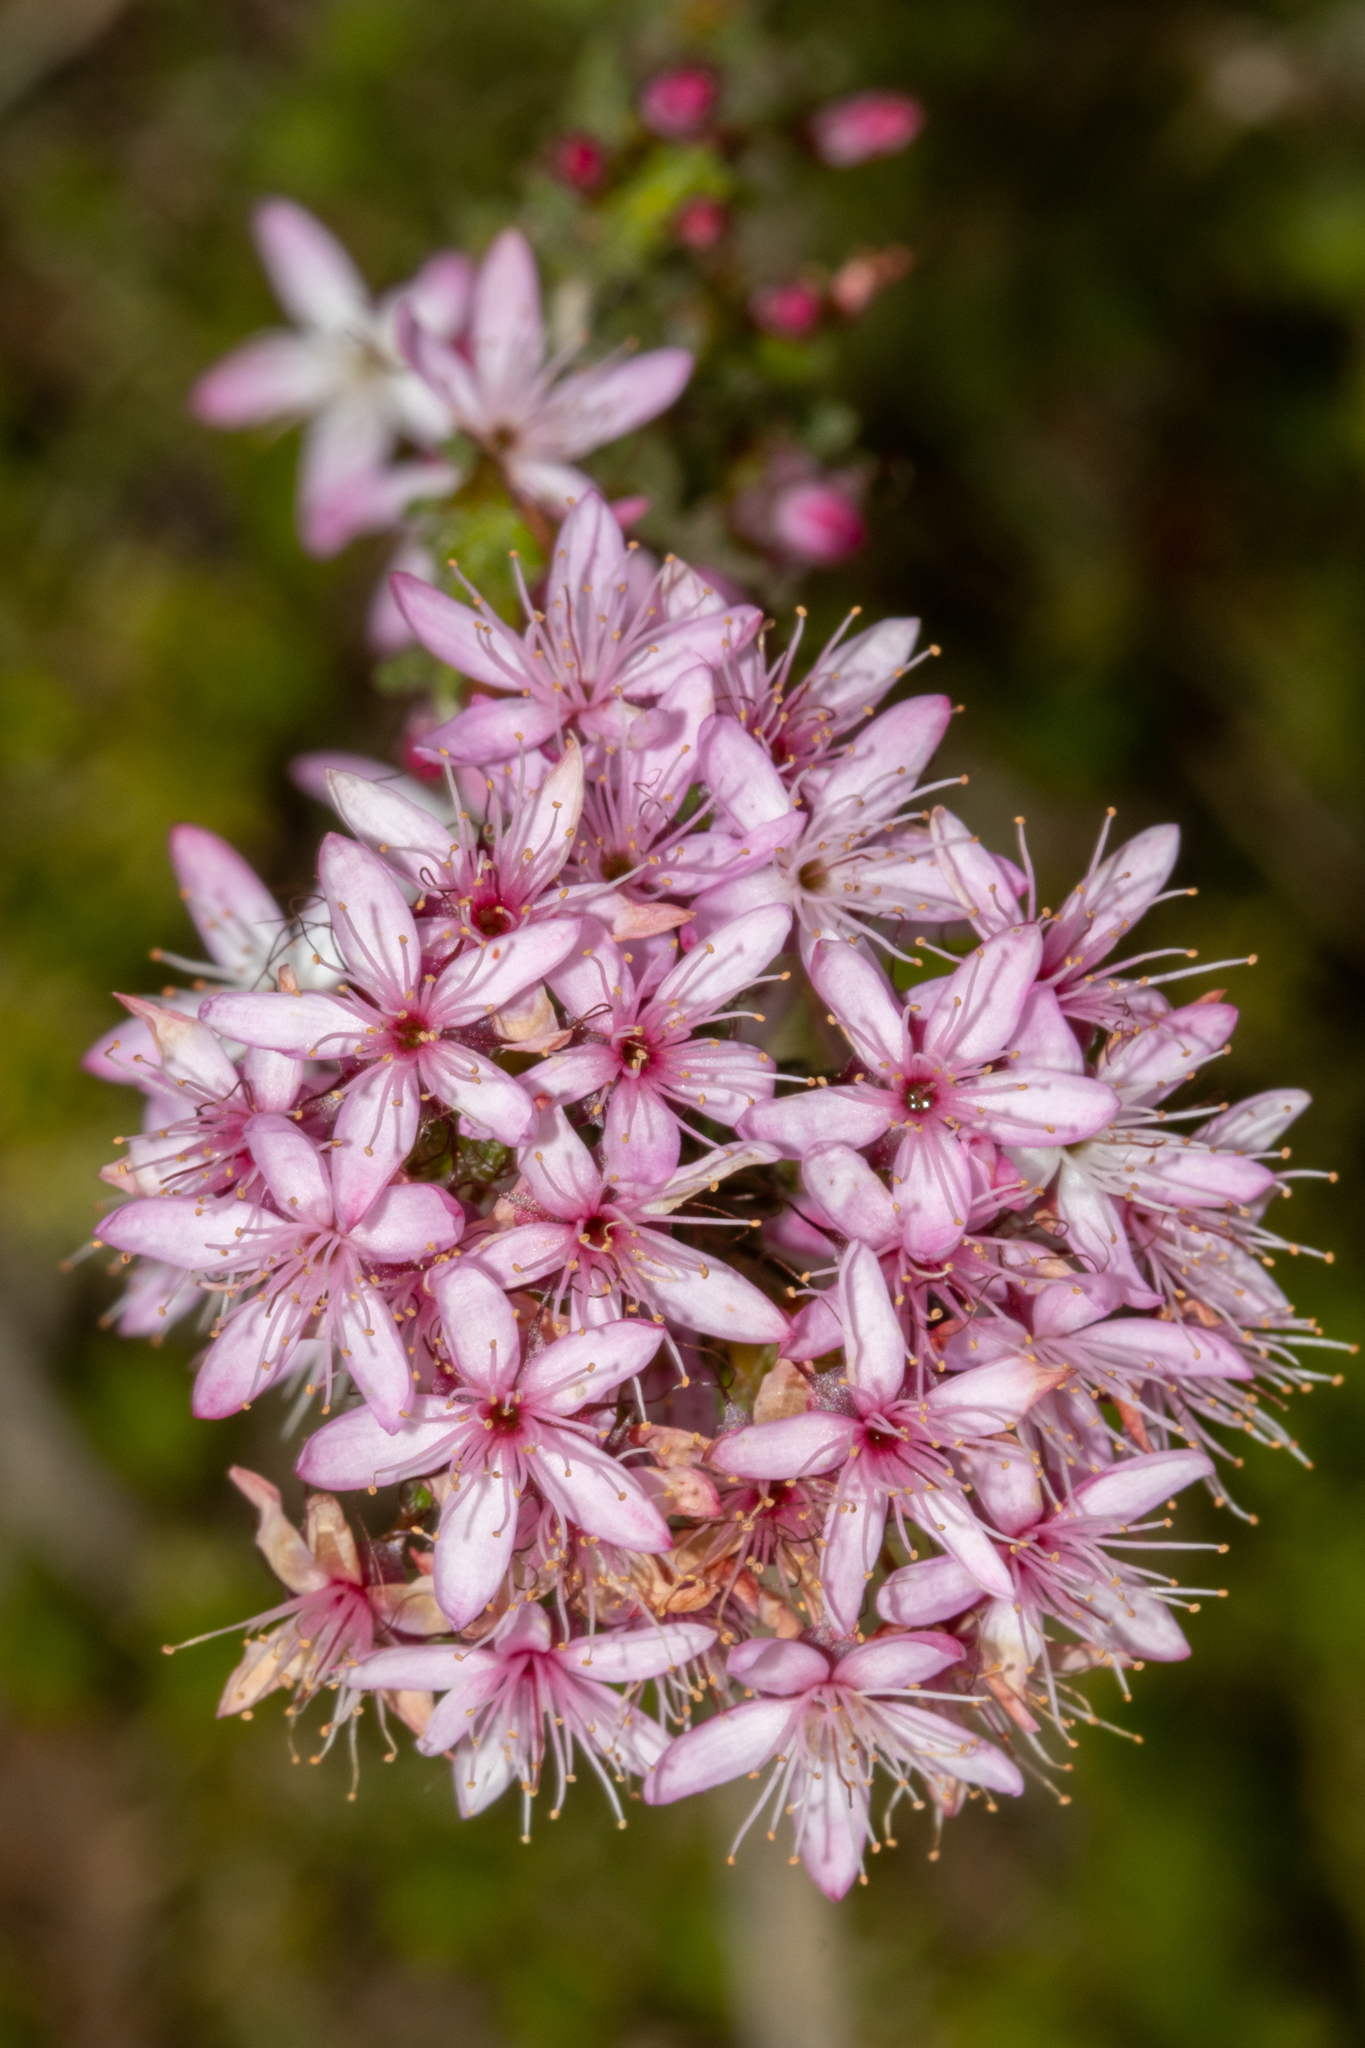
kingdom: Plantae
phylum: Tracheophyta
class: Magnoliopsida
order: Myrtales
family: Myrtaceae
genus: Calytrix
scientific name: Calytrix tetragona
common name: Common fringe myrtle
